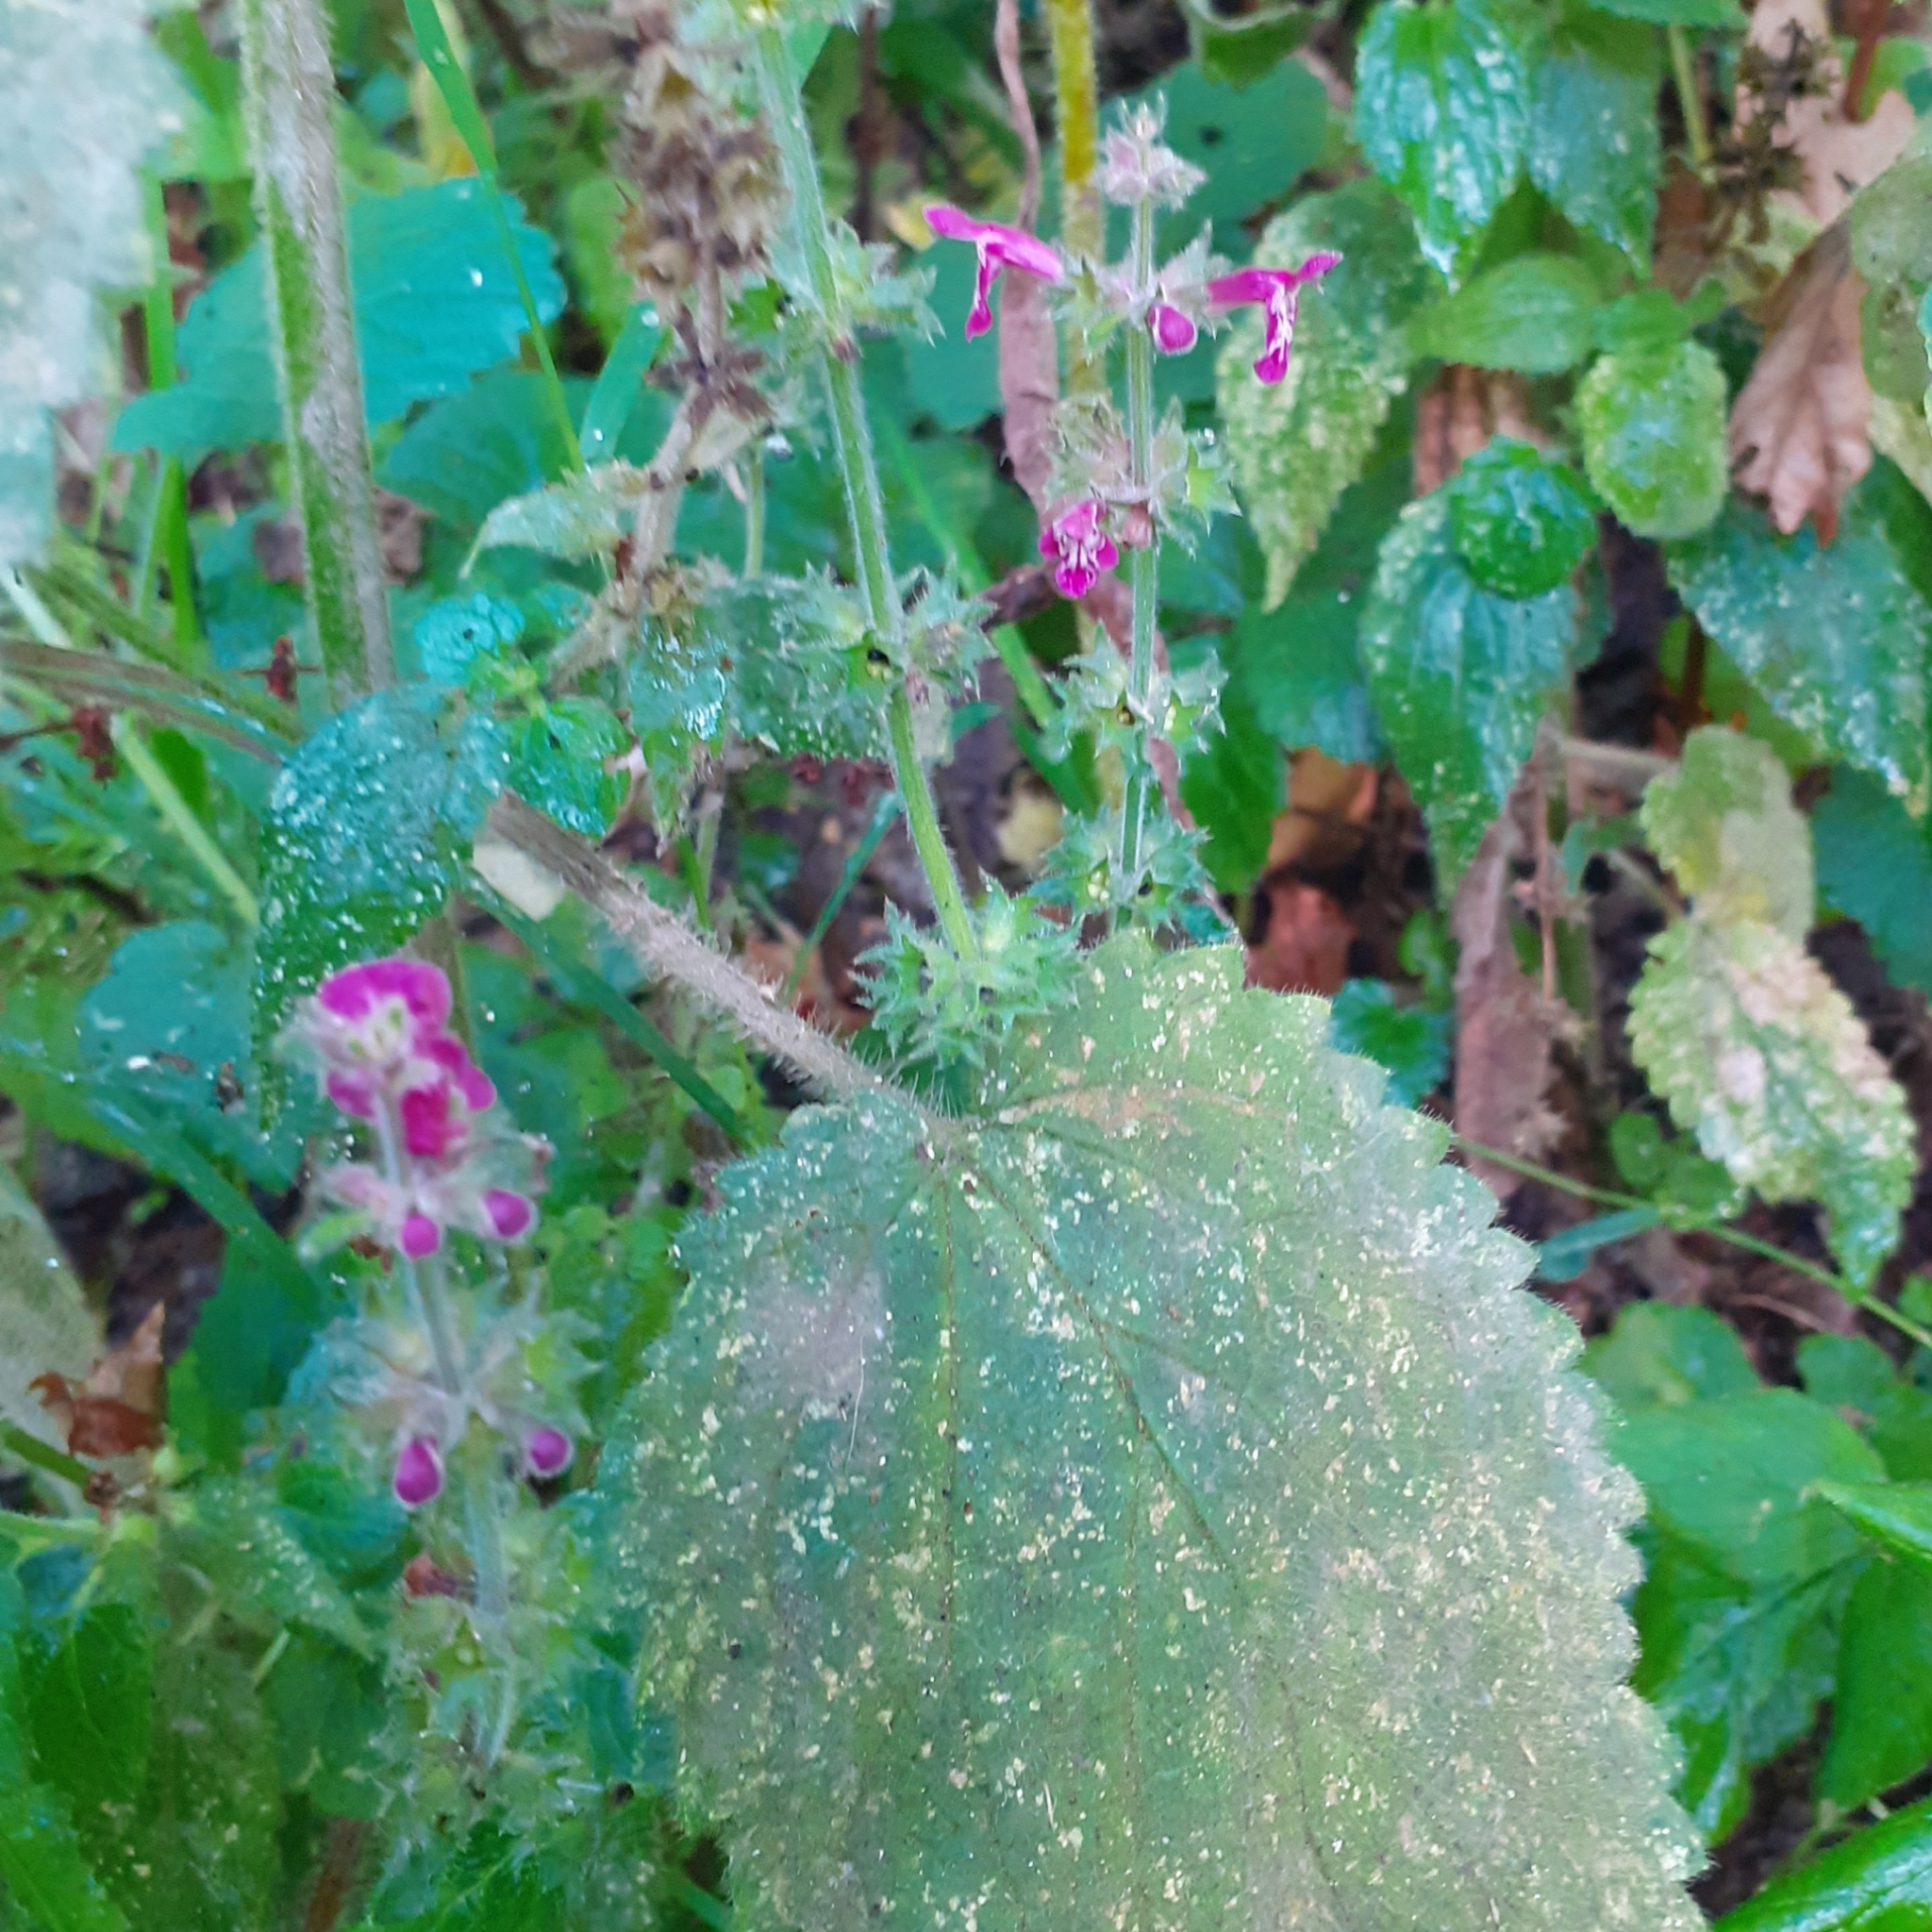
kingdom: Plantae
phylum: Tracheophyta
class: Magnoliopsida
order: Lamiales
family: Lamiaceae
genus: Stachys
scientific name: Stachys sylvatica
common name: Hedge woundwort
